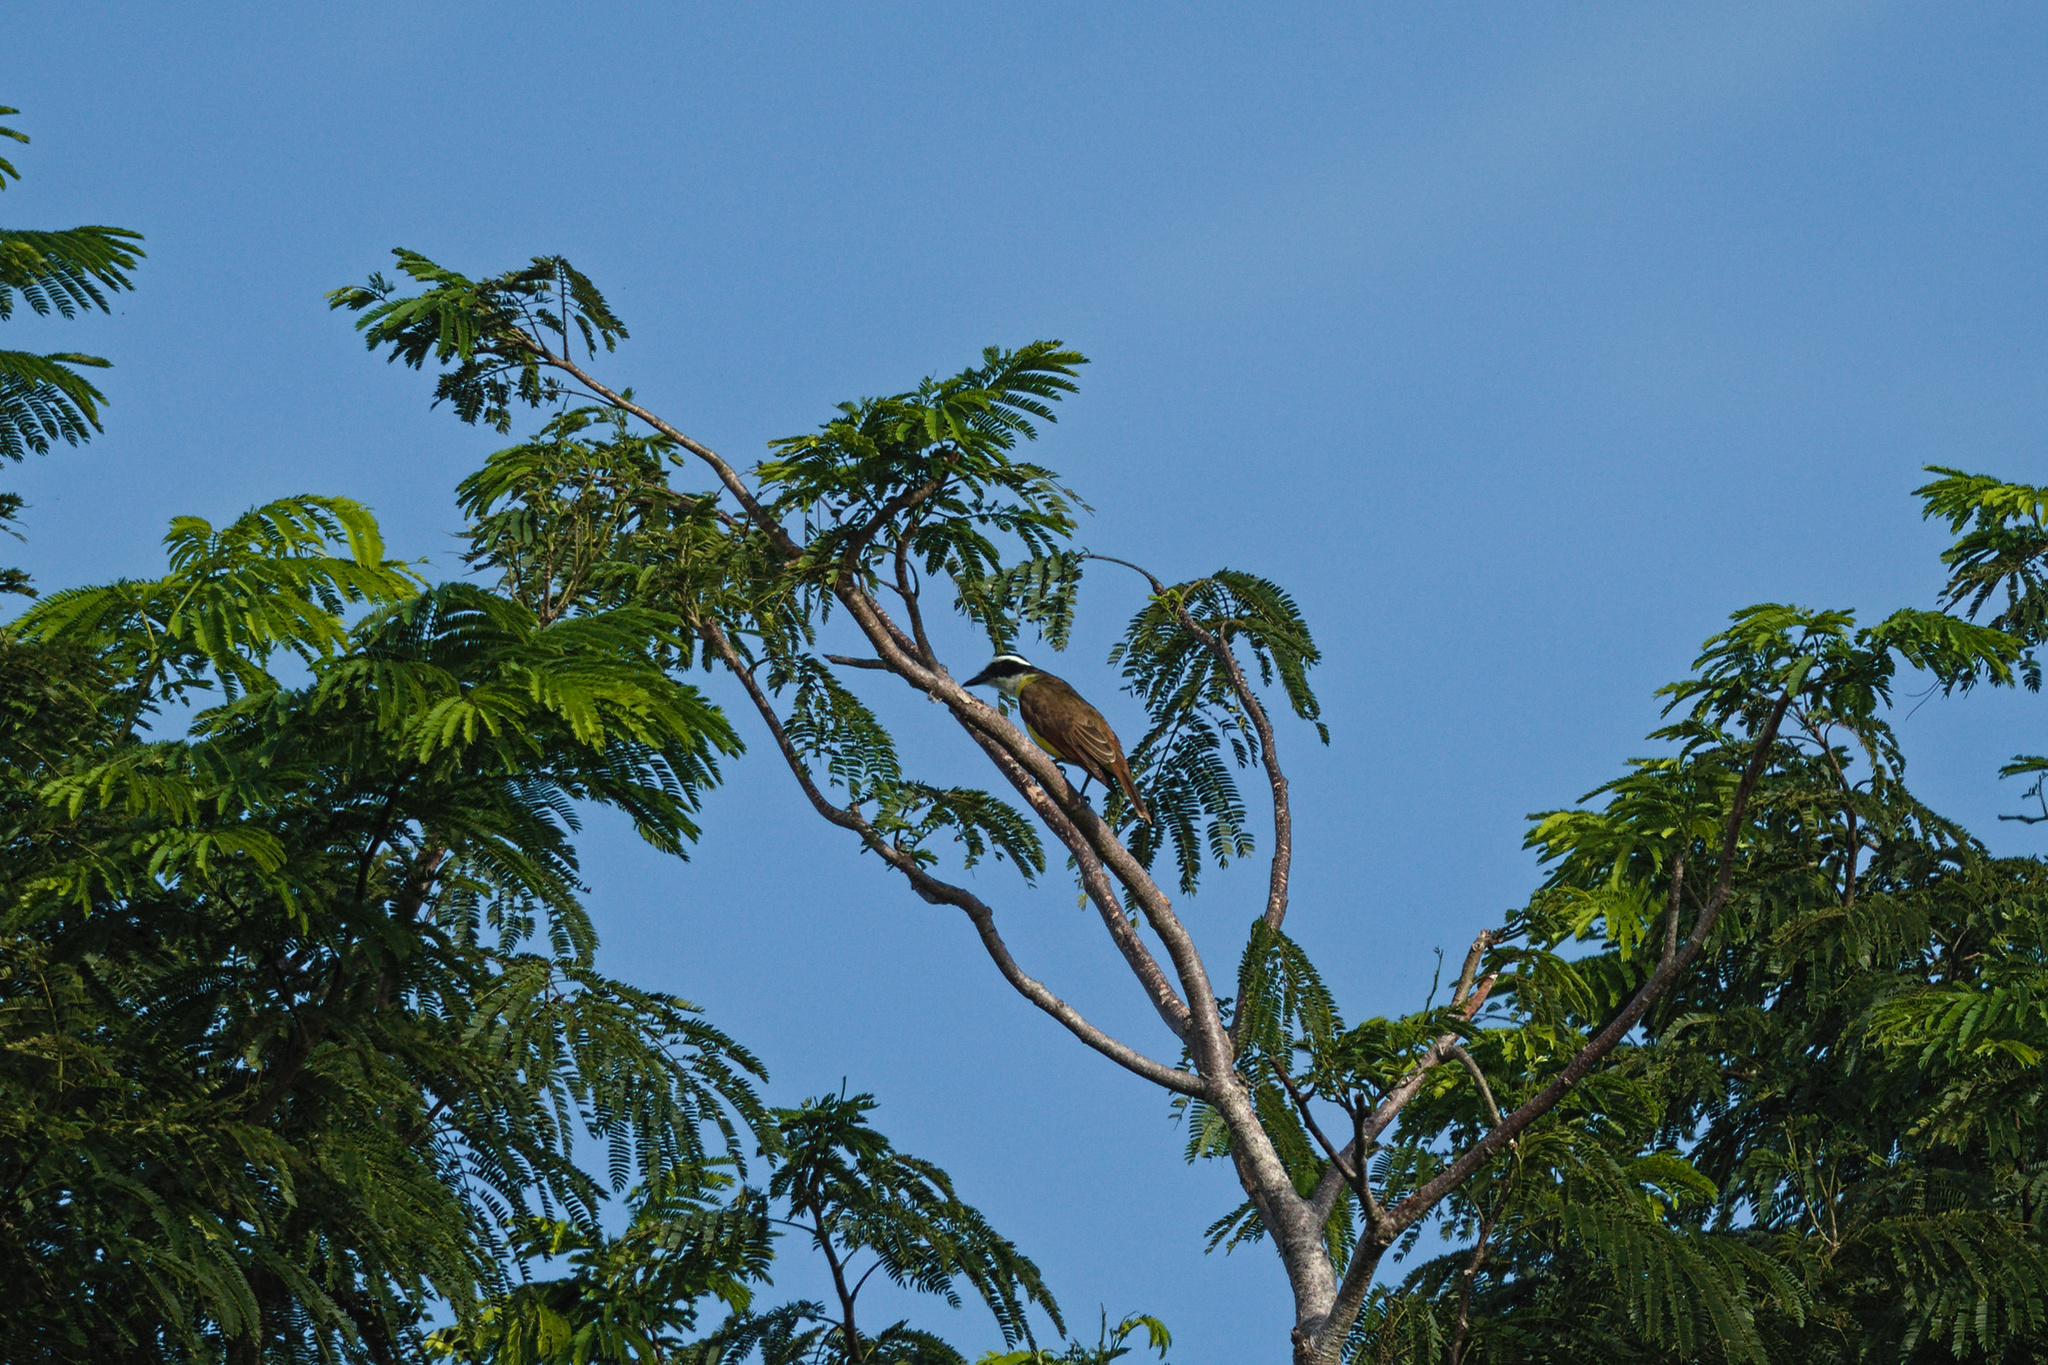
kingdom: Animalia
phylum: Chordata
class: Aves
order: Passeriformes
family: Tyrannidae
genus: Pitangus
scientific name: Pitangus sulphuratus
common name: Great kiskadee
